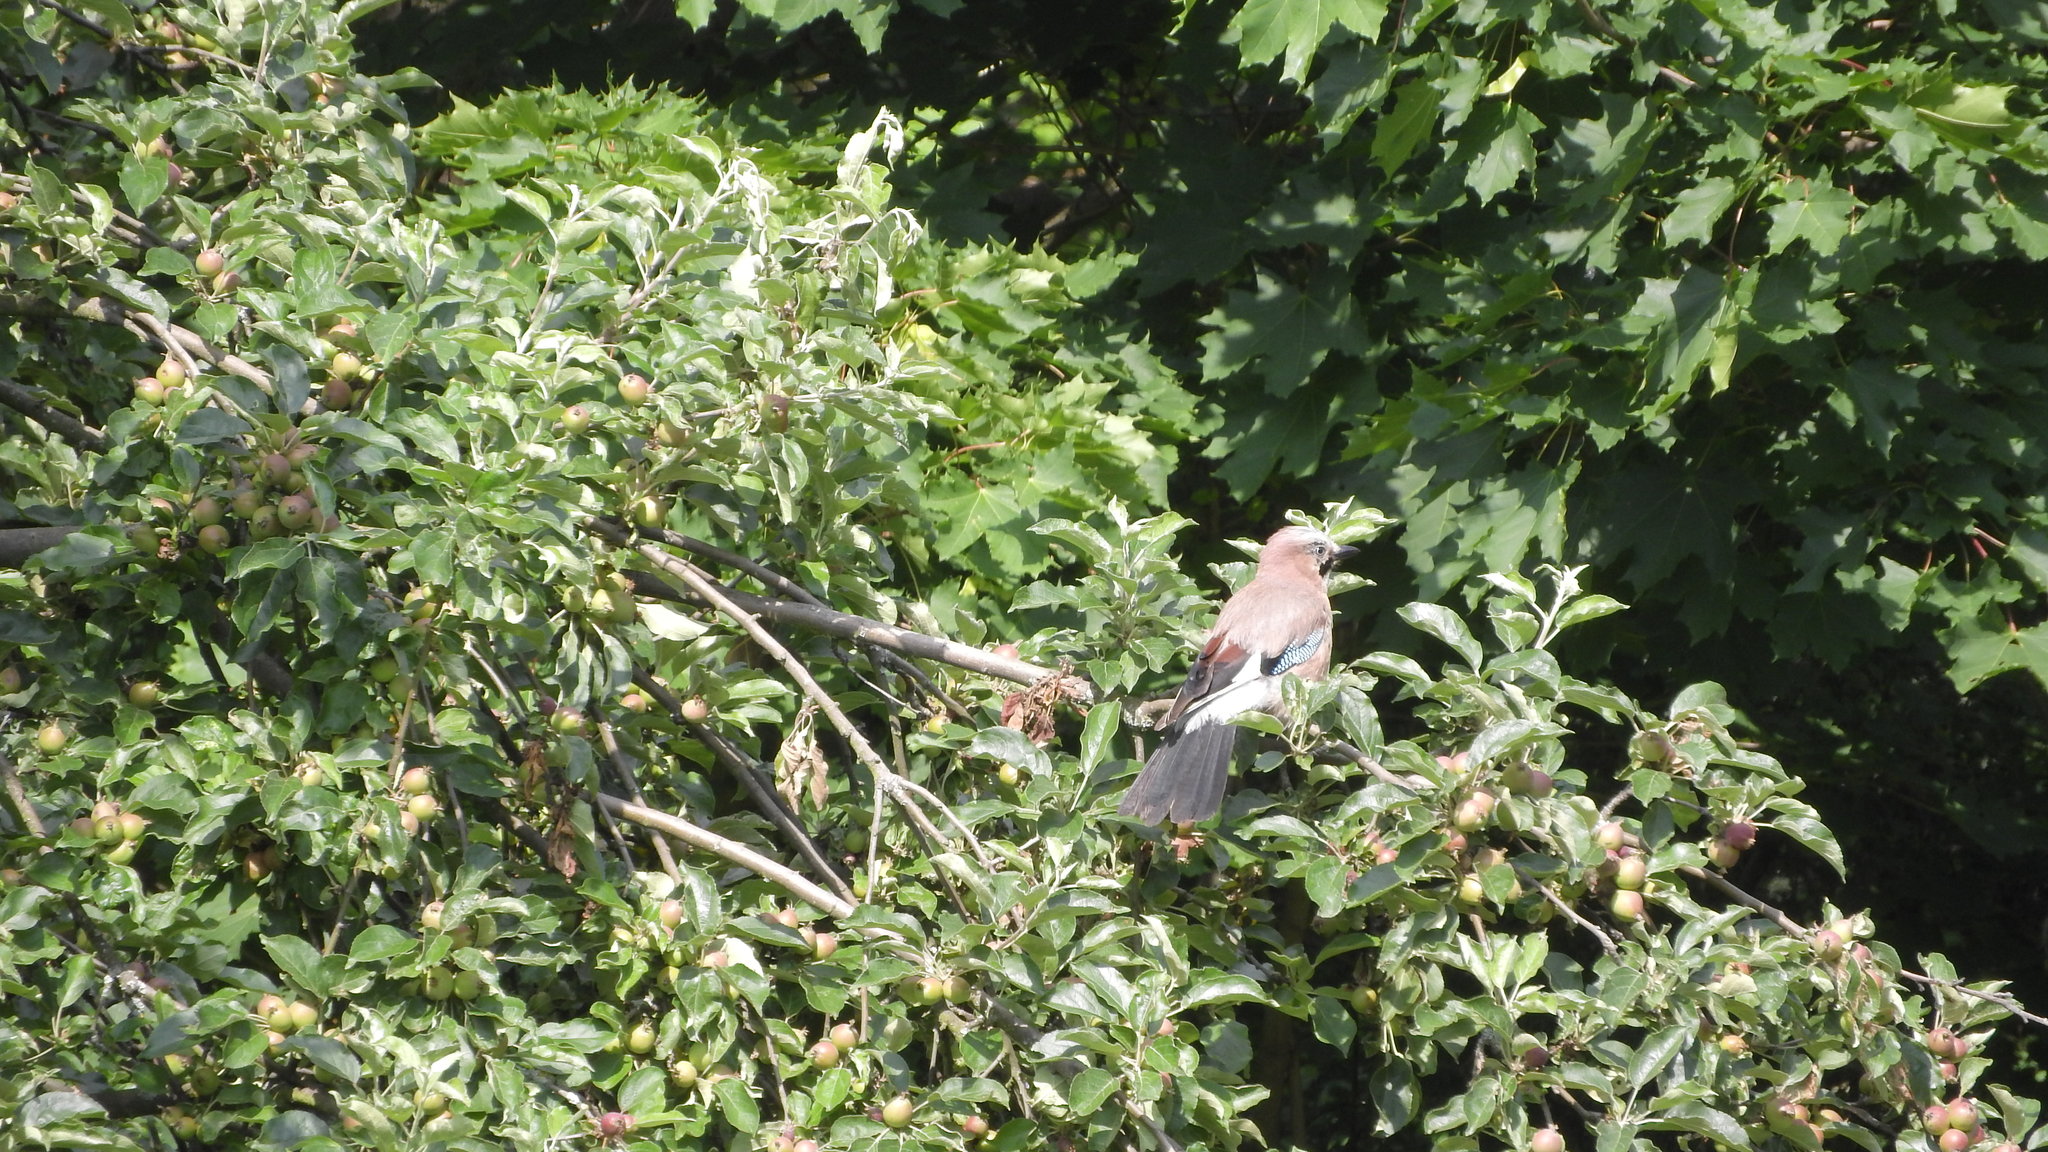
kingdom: Animalia
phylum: Chordata
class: Aves
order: Passeriformes
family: Corvidae
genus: Garrulus
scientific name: Garrulus glandarius
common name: Eurasian jay
